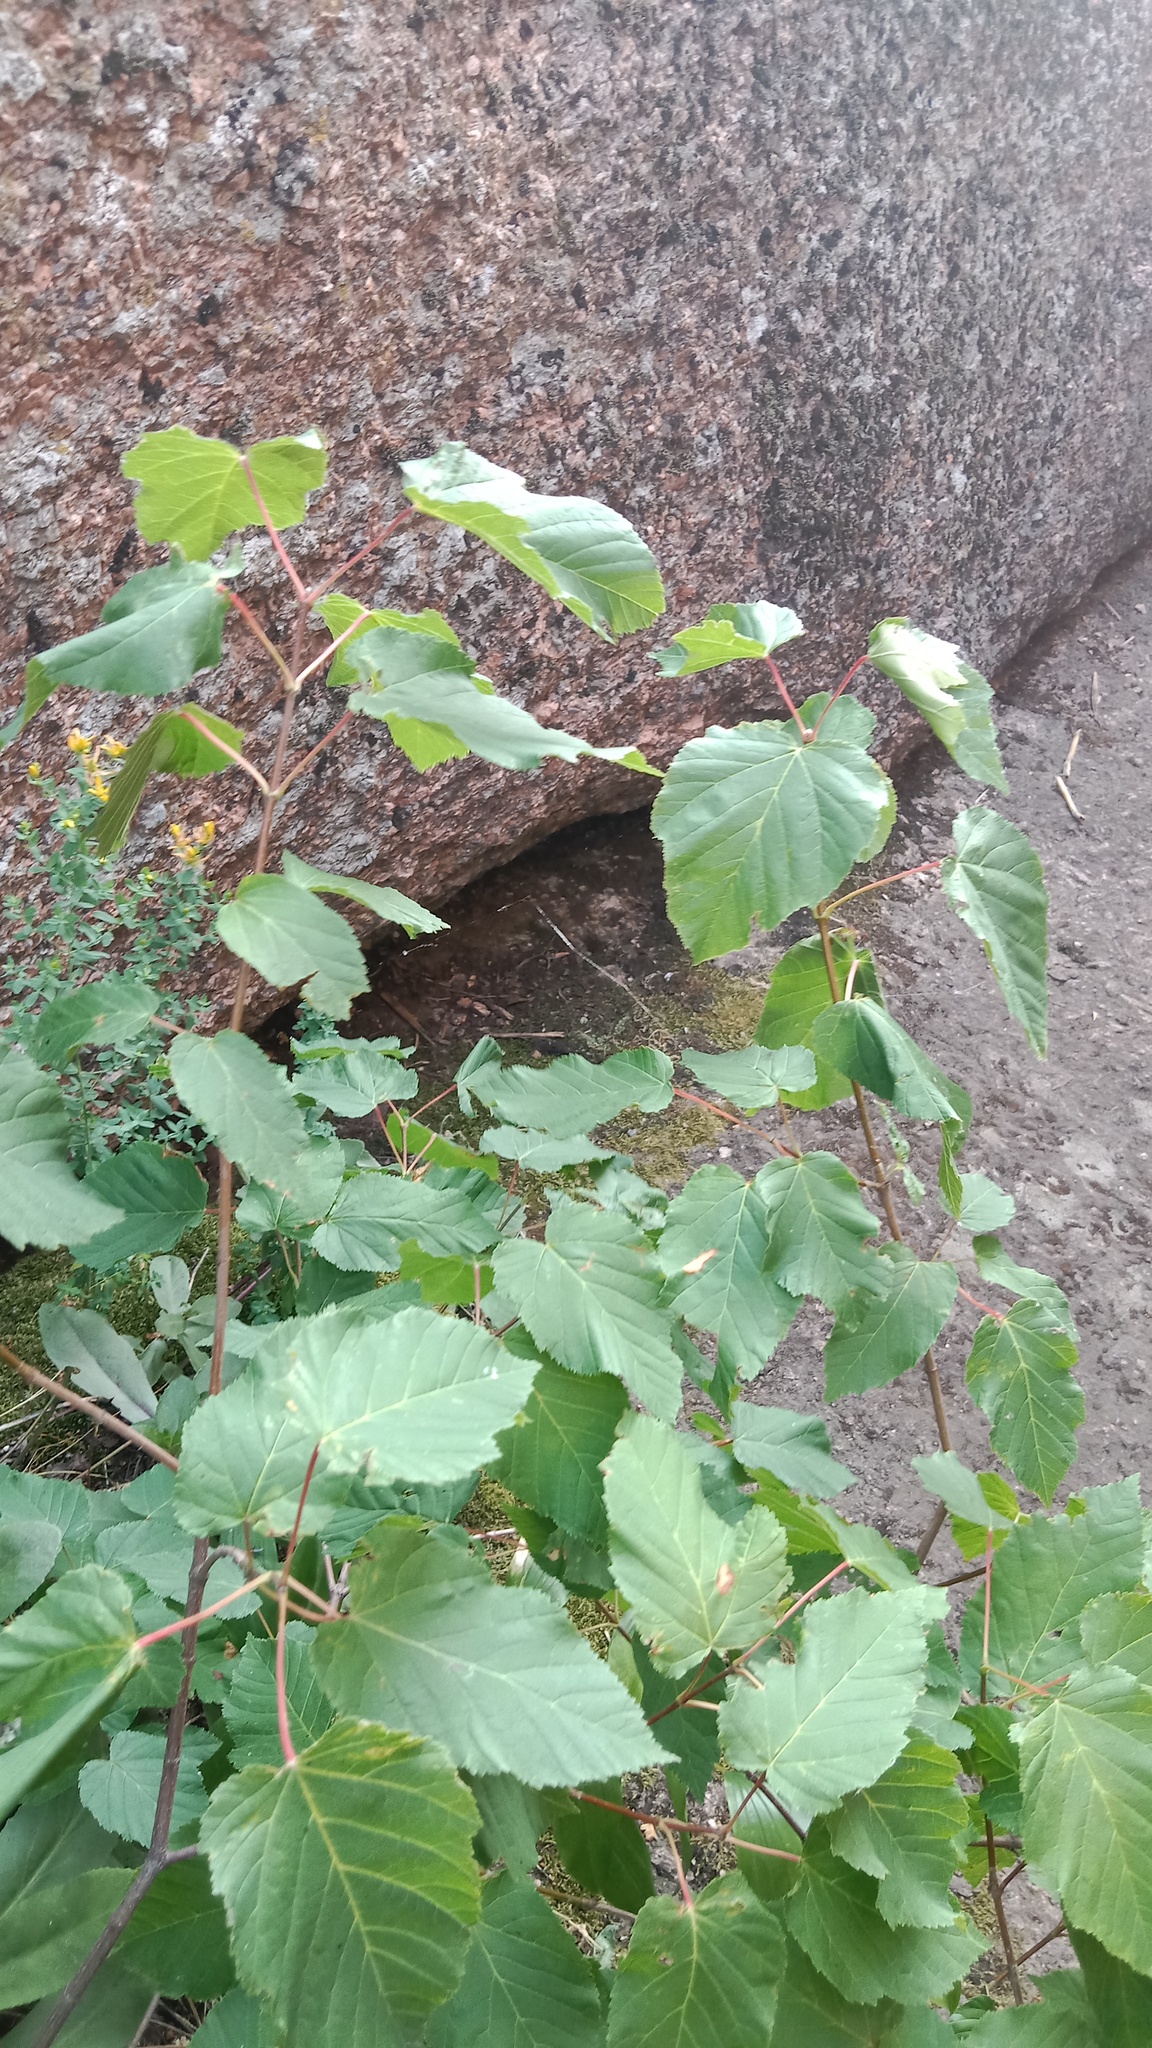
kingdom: Plantae
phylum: Tracheophyta
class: Magnoliopsida
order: Sapindales
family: Sapindaceae
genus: Acer
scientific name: Acer tataricum
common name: Tartar maple
